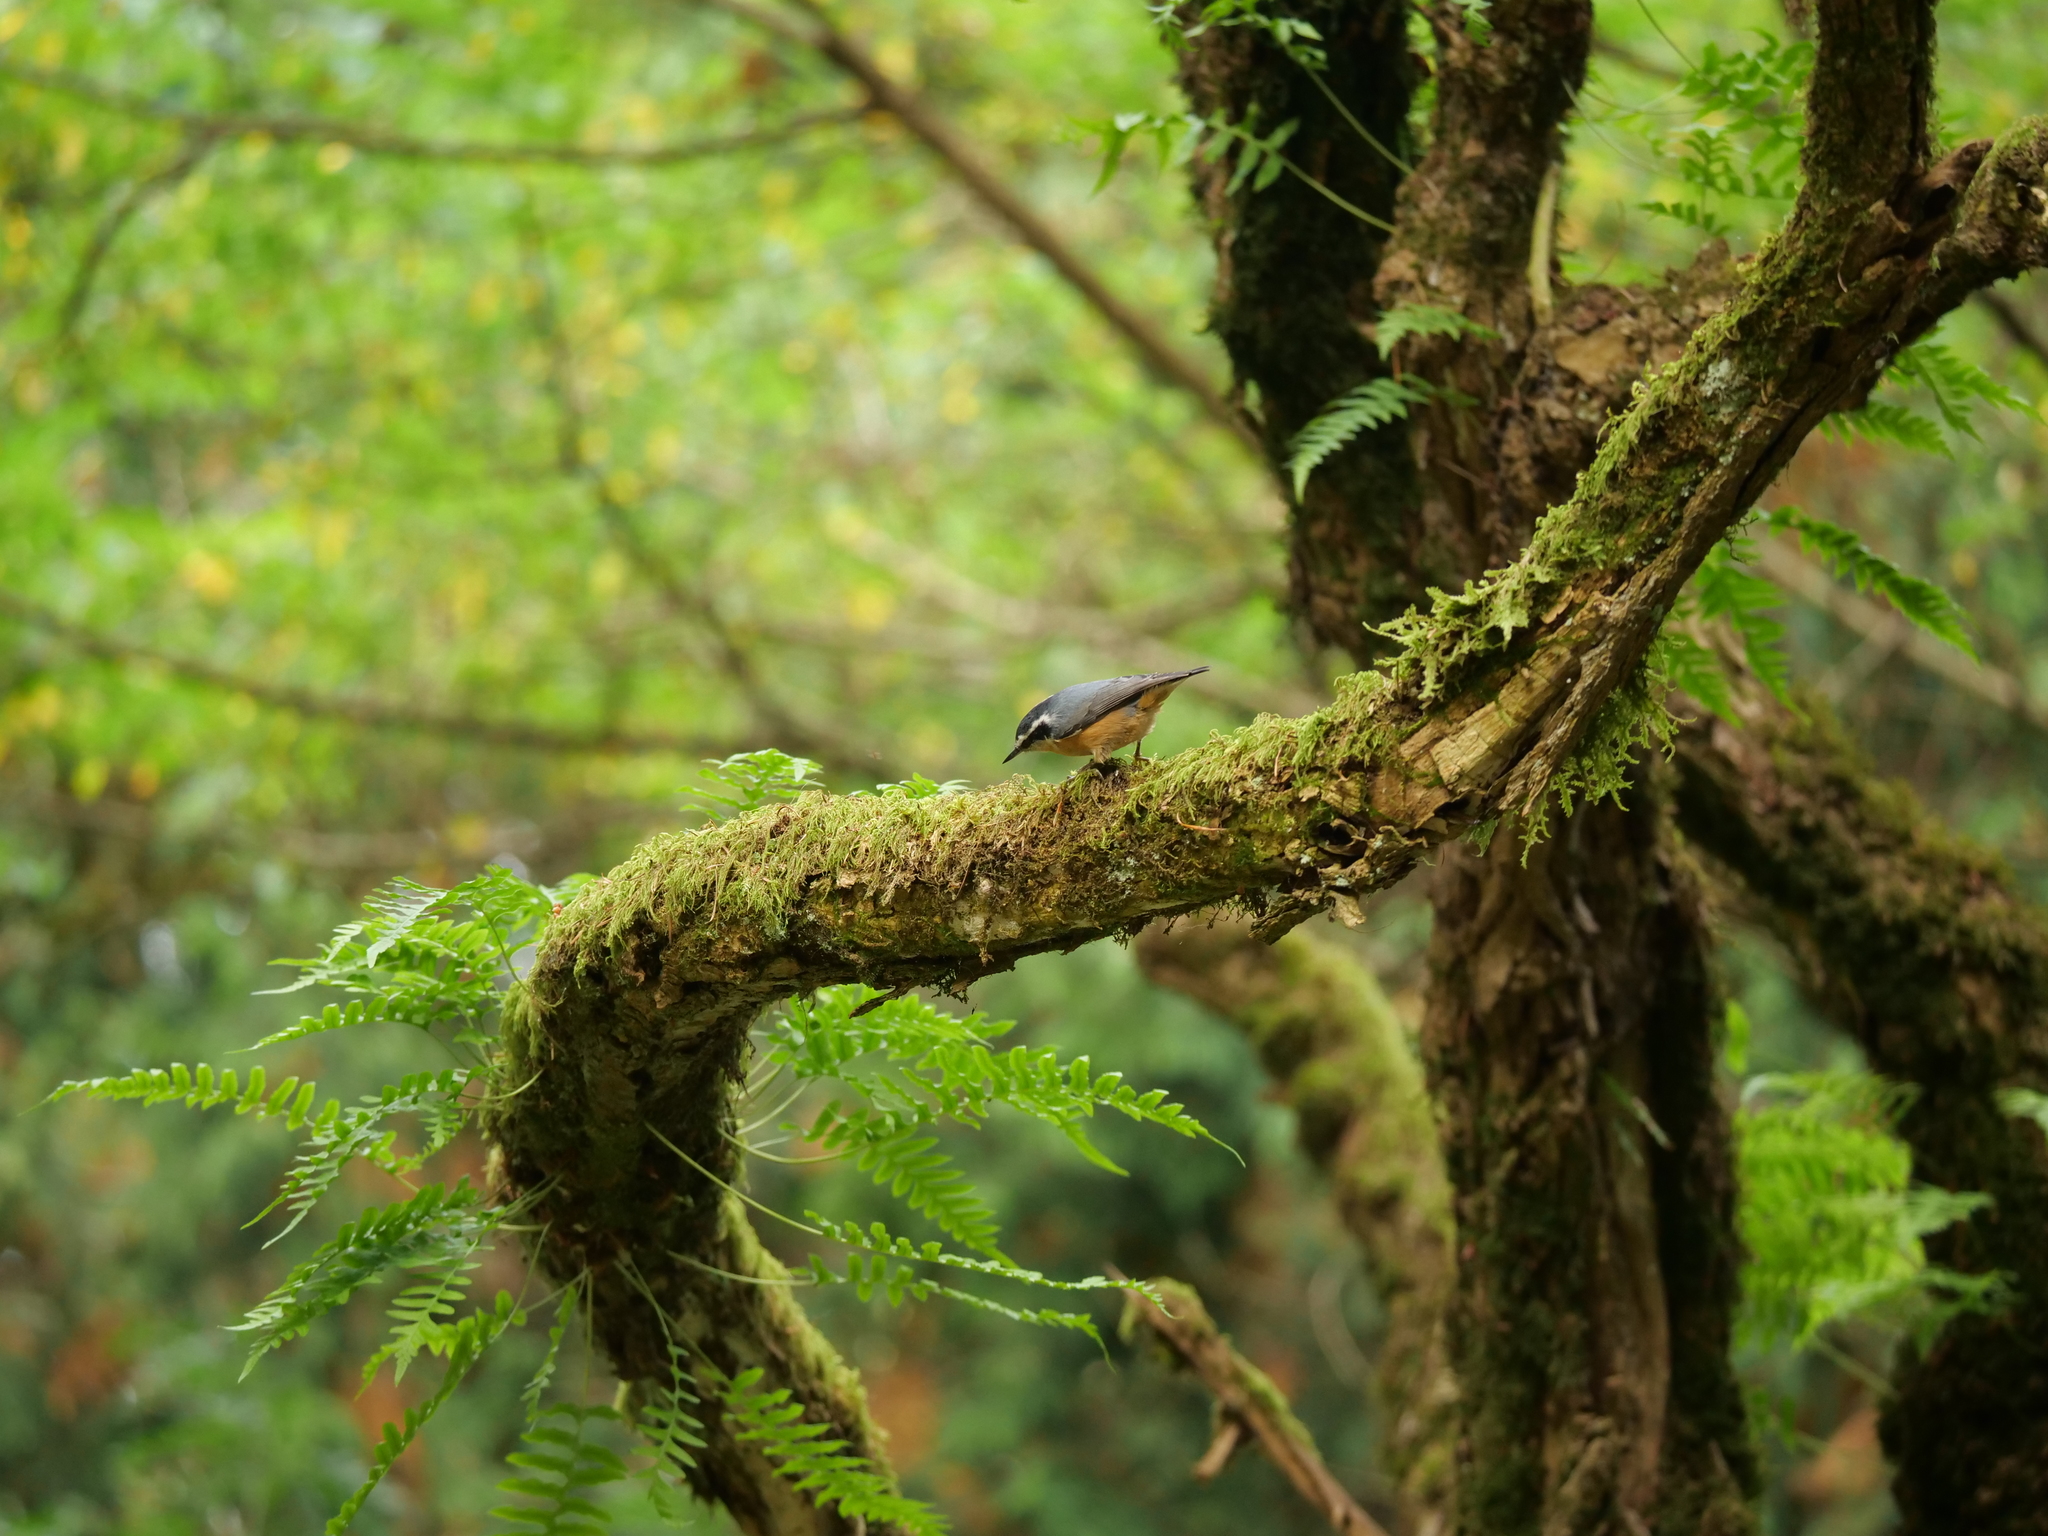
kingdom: Animalia
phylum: Chordata
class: Aves
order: Passeriformes
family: Sittidae
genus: Sitta
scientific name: Sitta canadensis
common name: Red-breasted nuthatch
